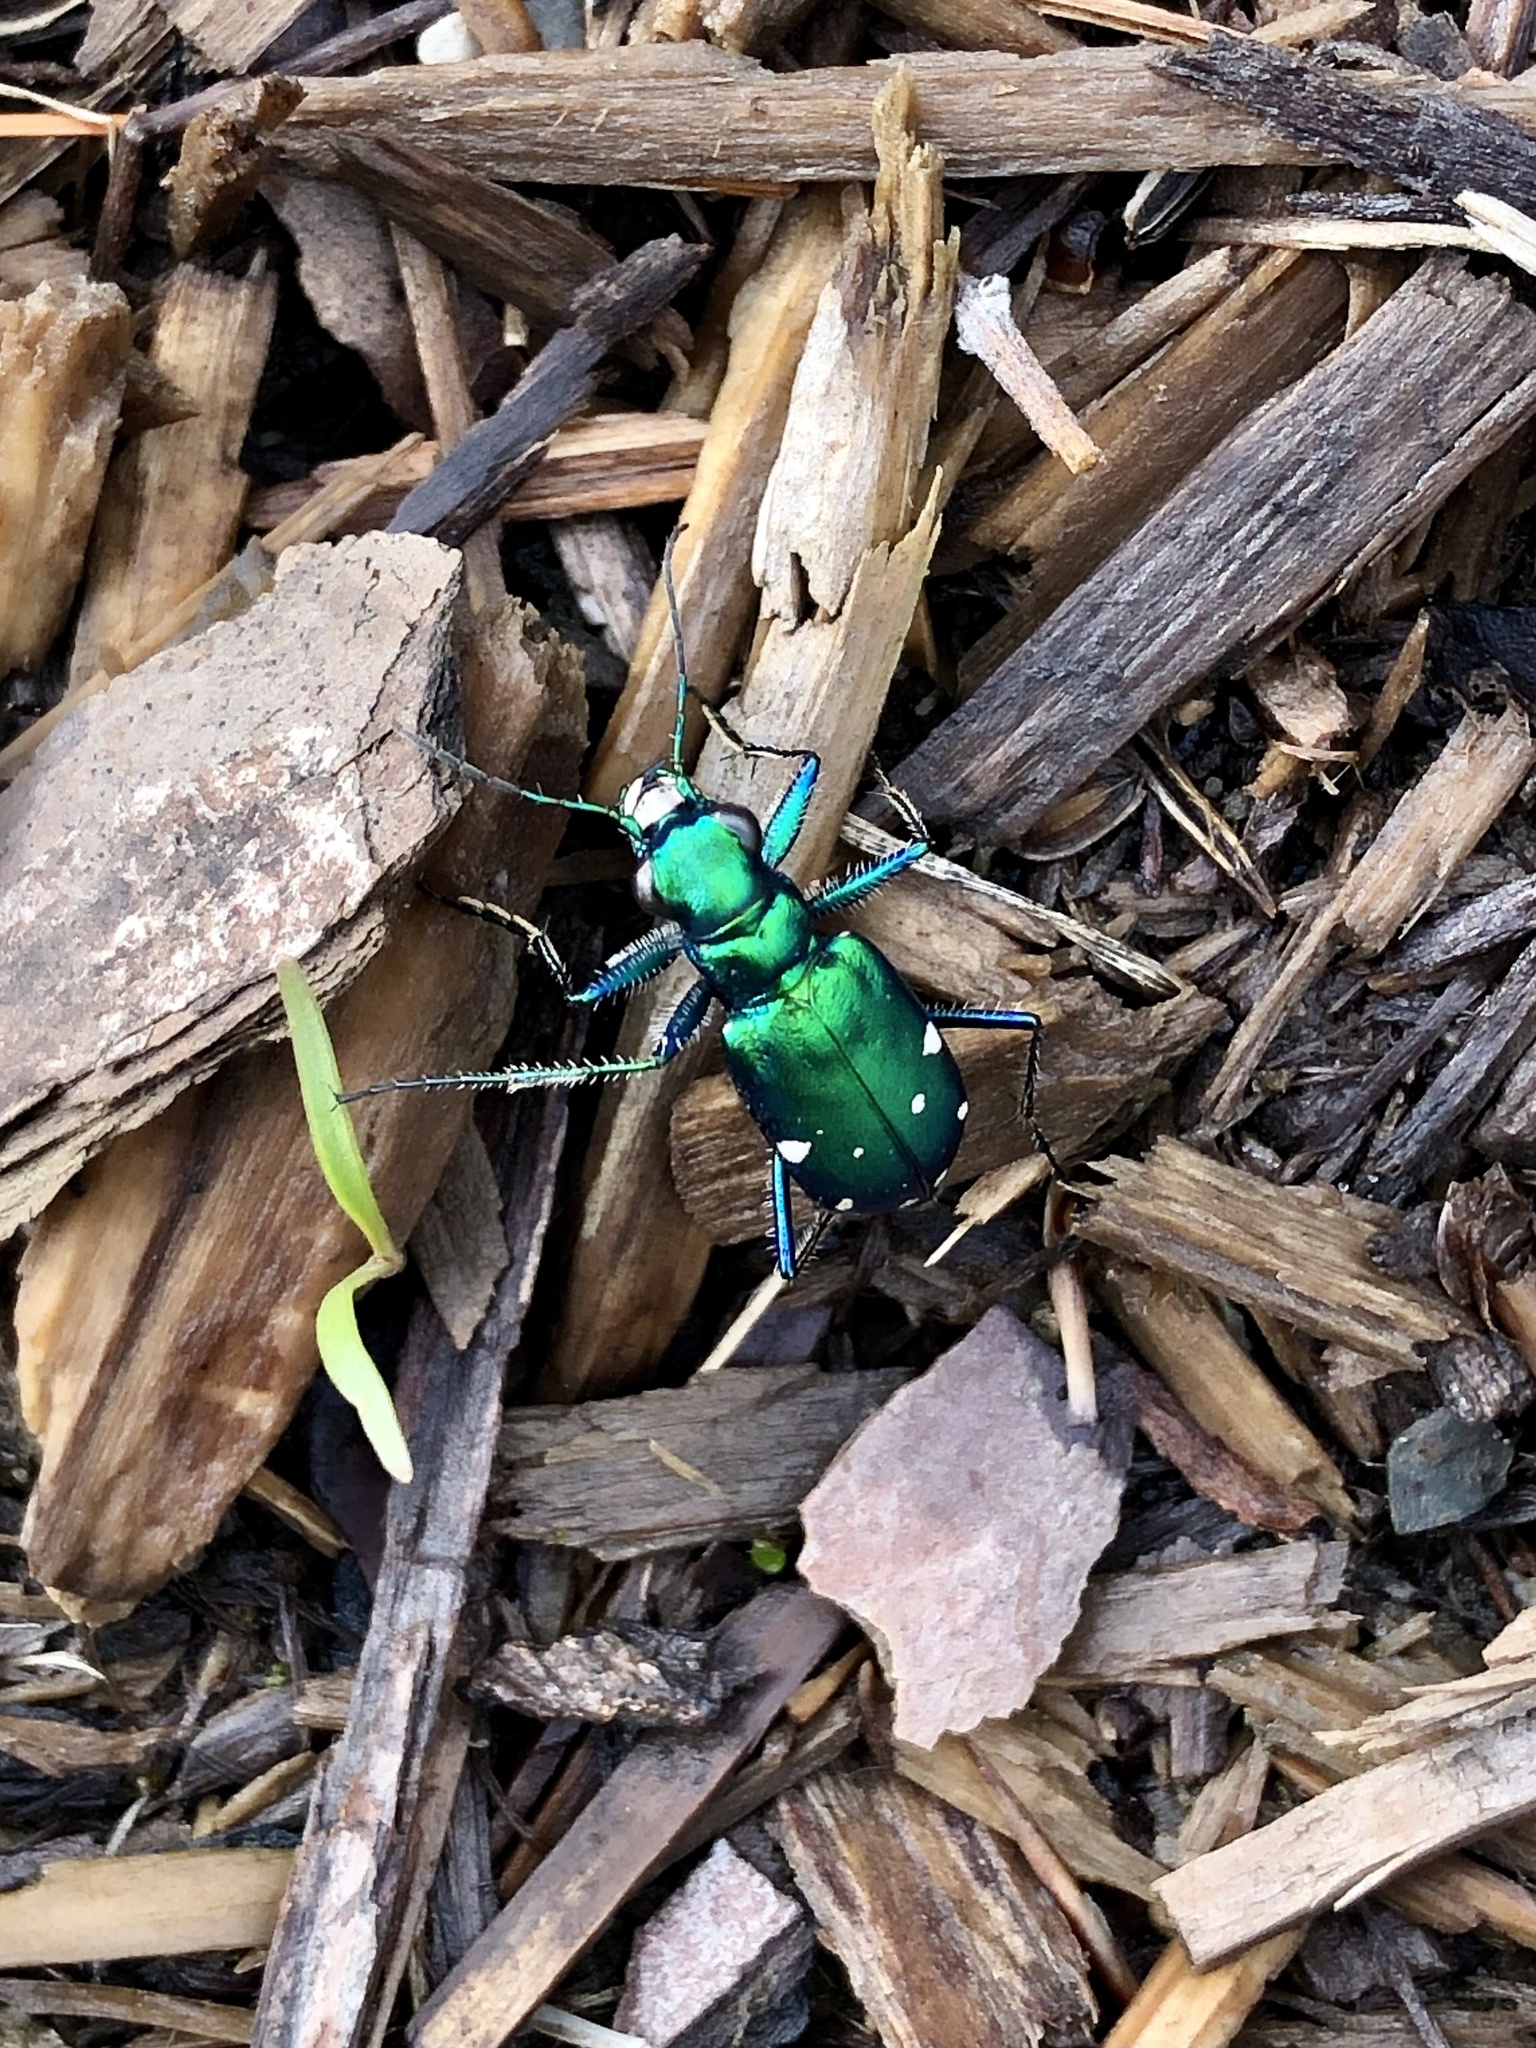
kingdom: Animalia
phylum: Arthropoda
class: Insecta
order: Coleoptera
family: Carabidae
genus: Cicindela
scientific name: Cicindela sexguttata
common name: Six-spotted tiger beetle
